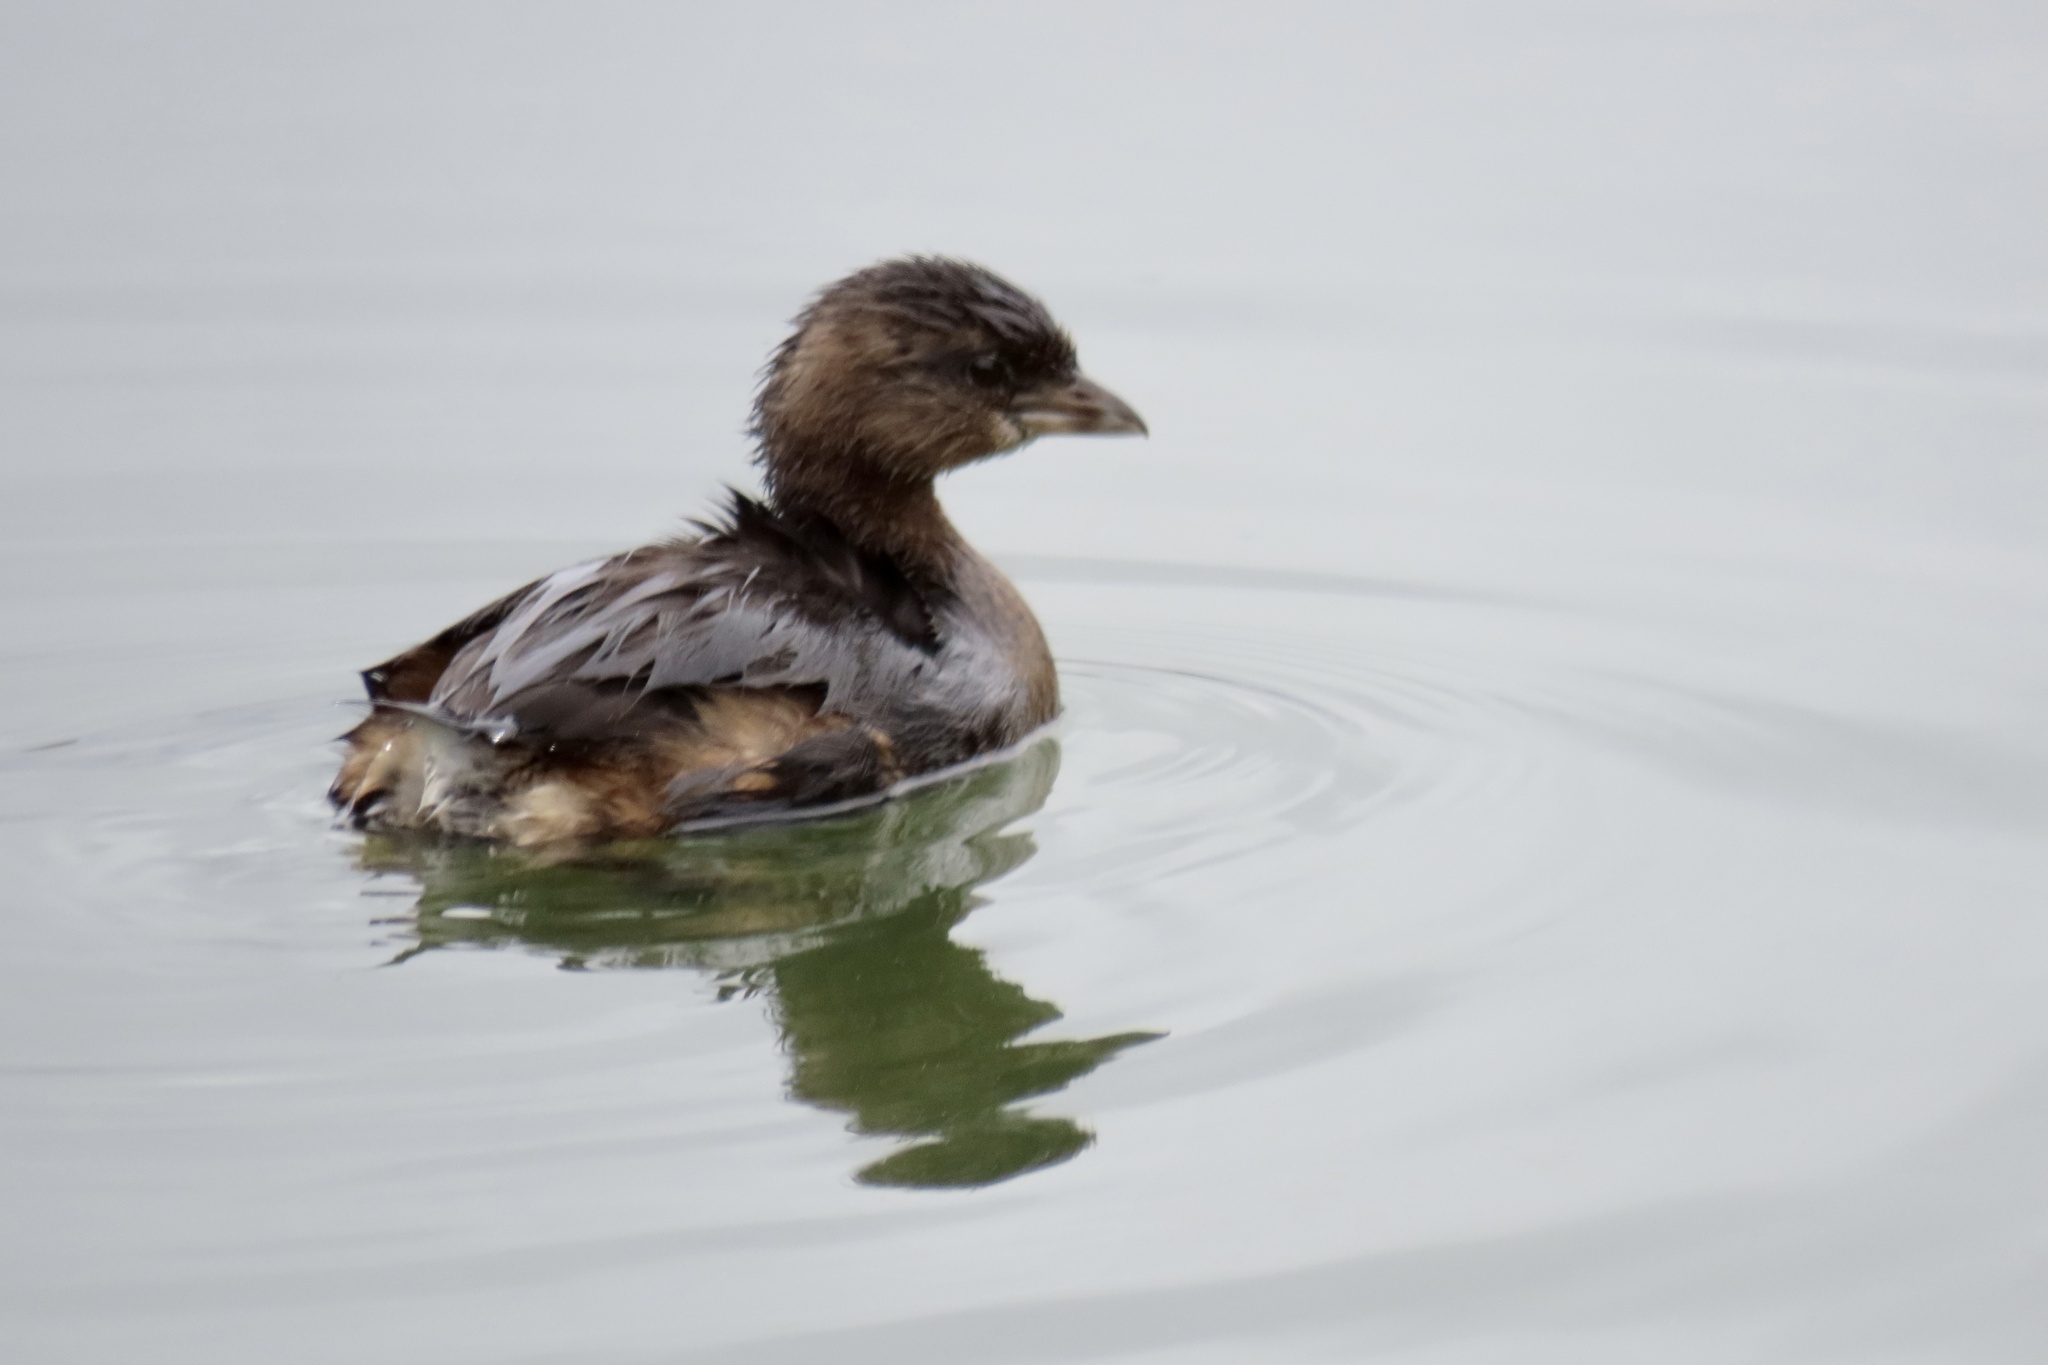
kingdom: Animalia
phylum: Chordata
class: Aves
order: Podicipediformes
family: Podicipedidae
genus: Podilymbus
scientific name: Podilymbus podiceps
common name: Pied-billed grebe
